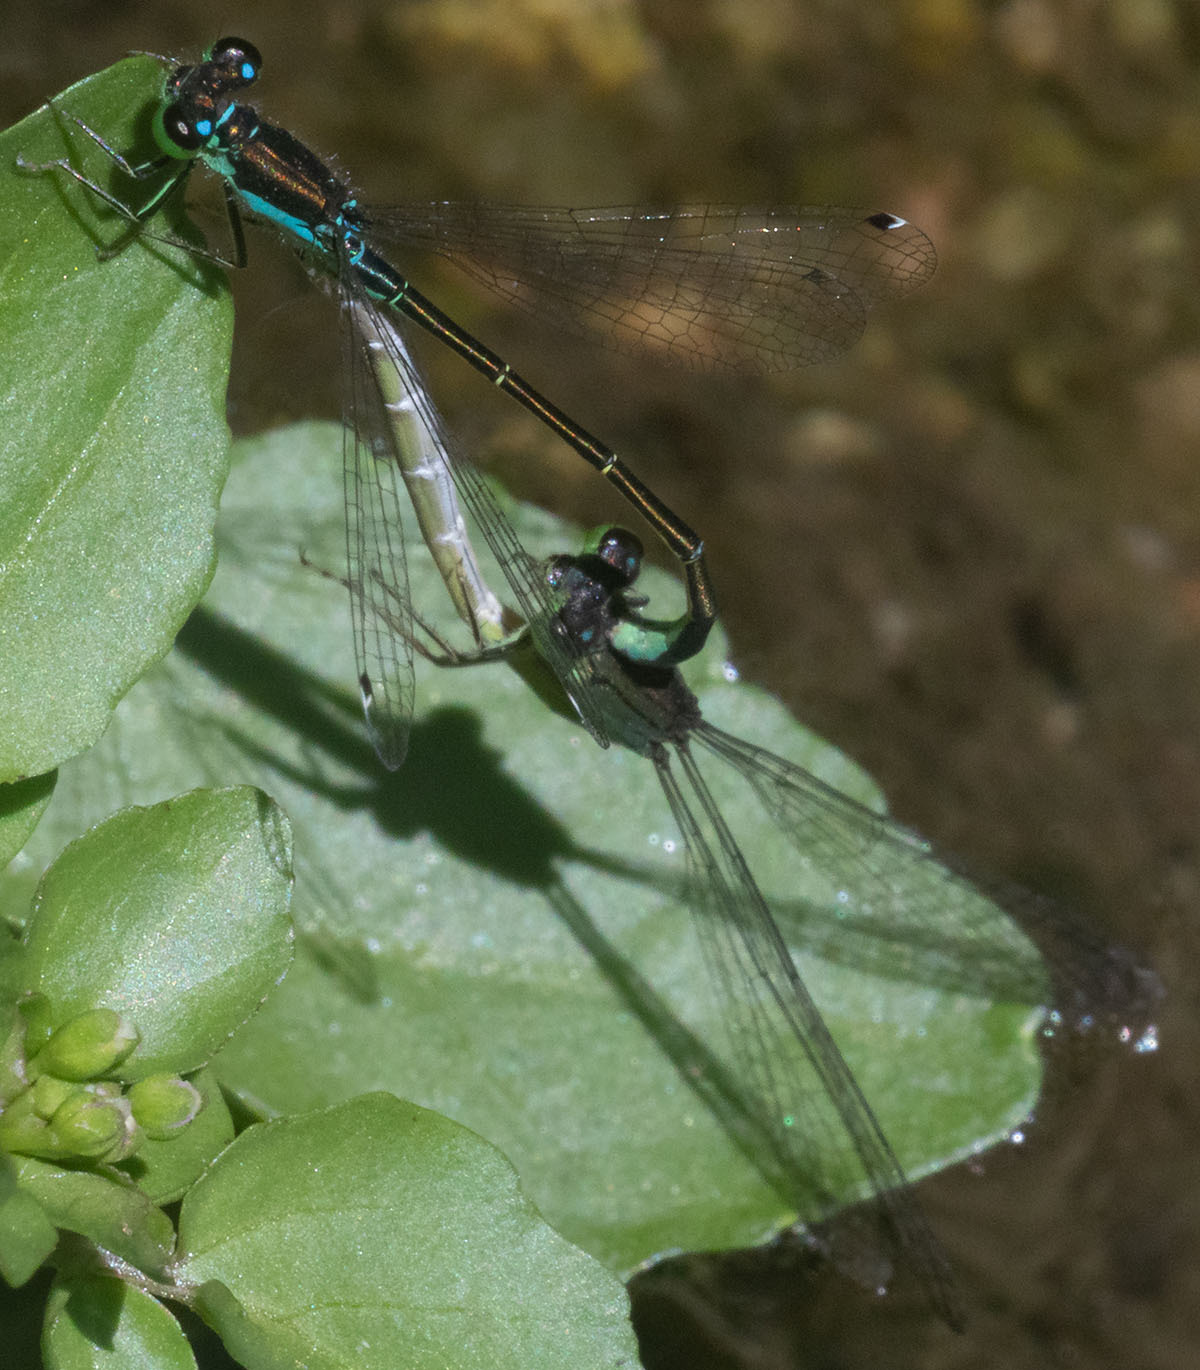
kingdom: Animalia
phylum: Arthropoda
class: Insecta
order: Odonata
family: Coenagrionidae
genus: Ischnura
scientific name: Ischnura denticollis
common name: Black-fronted forktail
